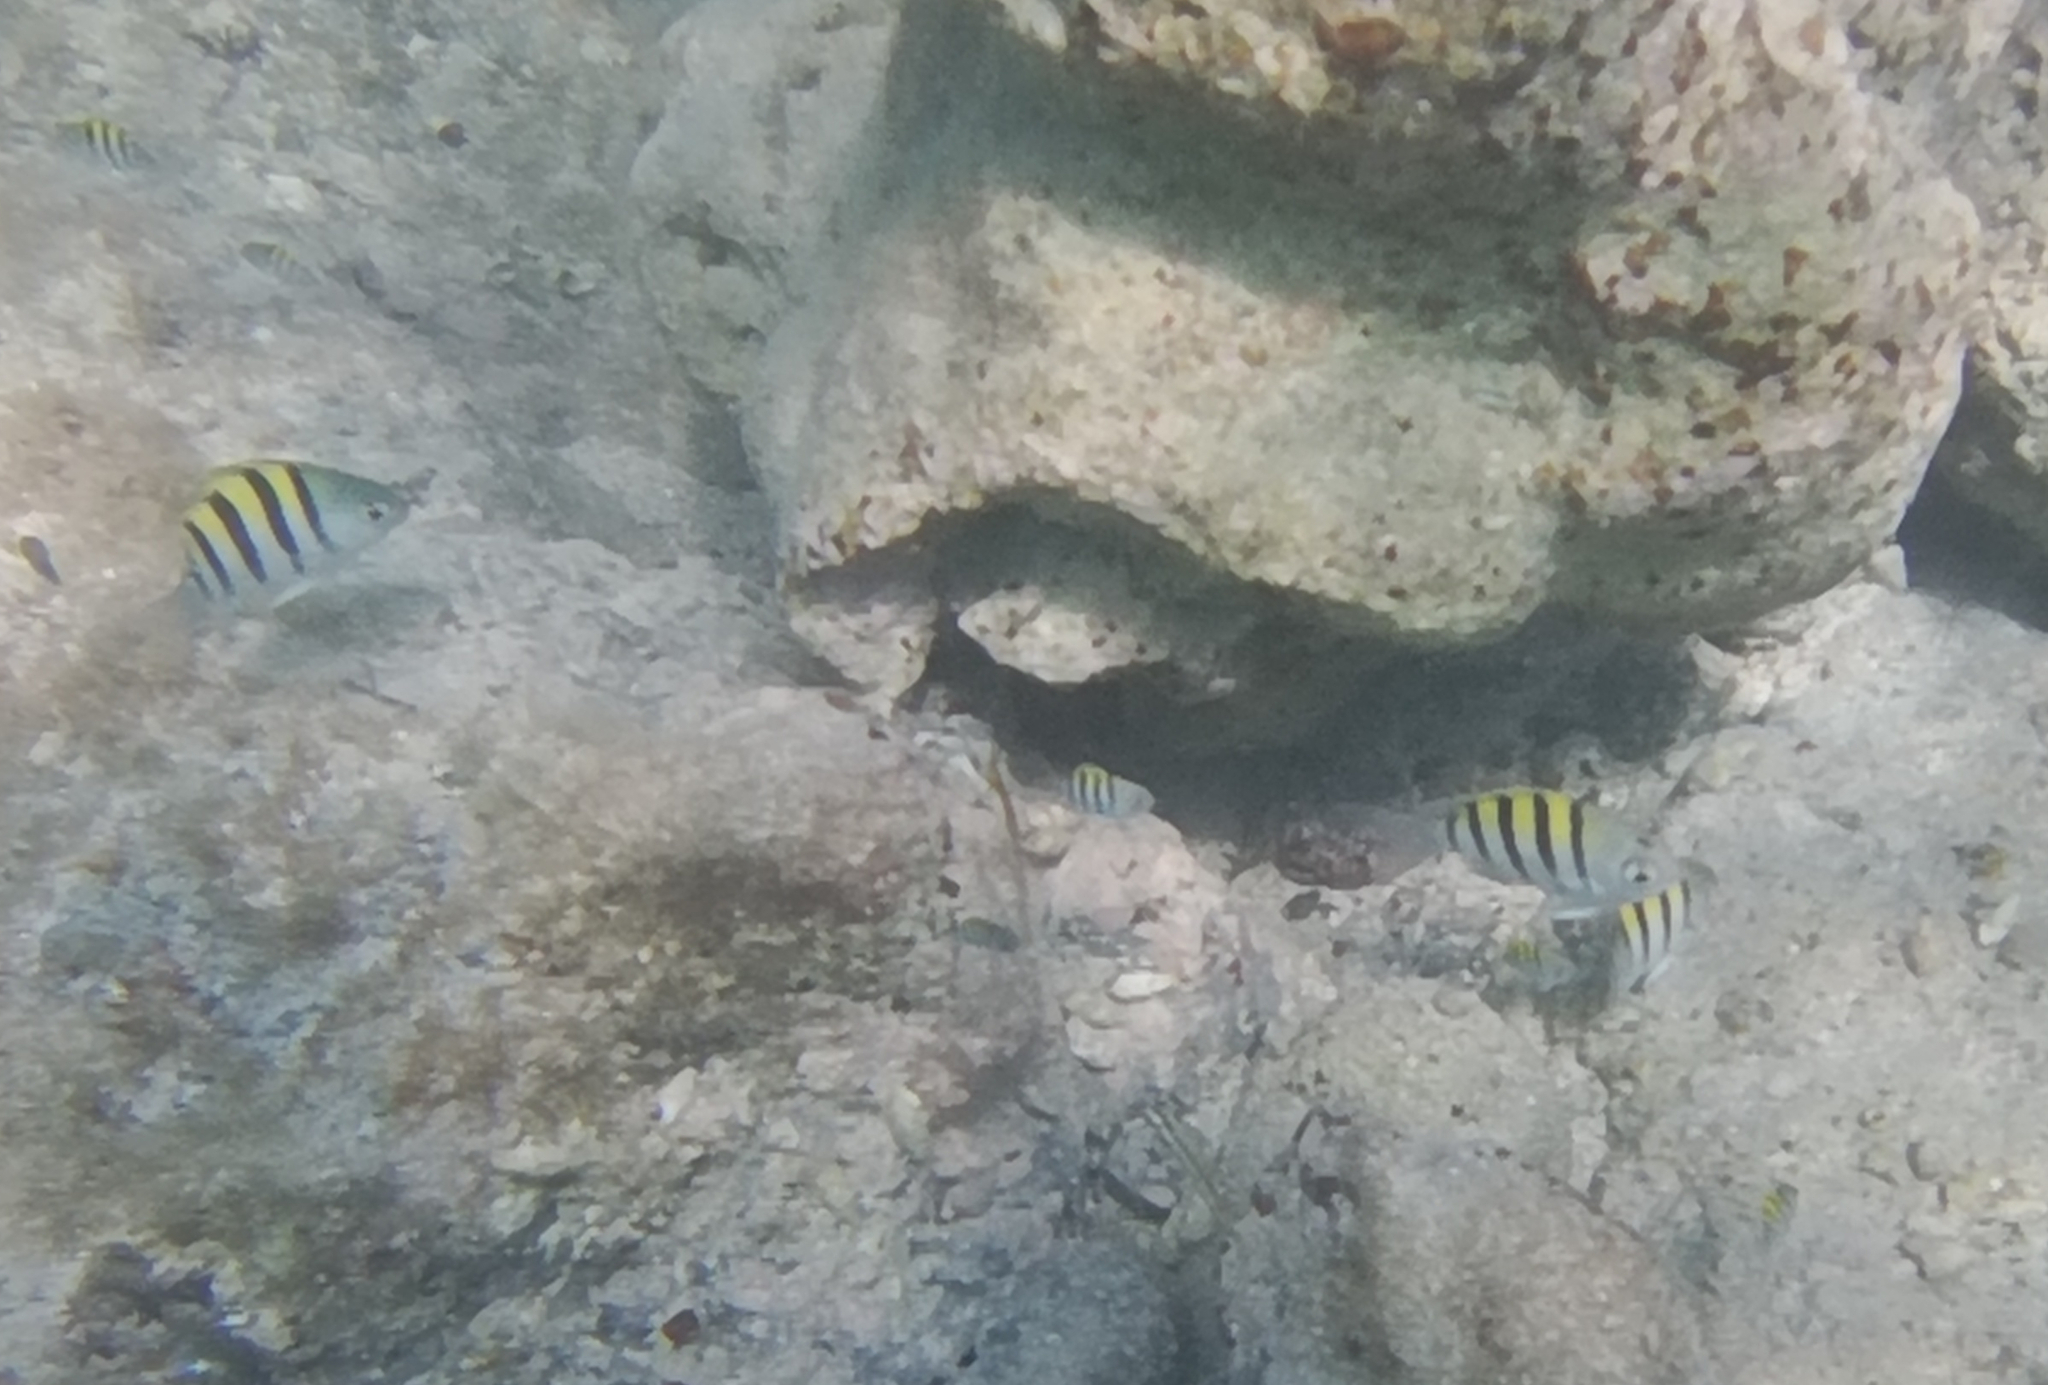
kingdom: Animalia
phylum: Chordata
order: Perciformes
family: Pomacentridae
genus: Abudefduf
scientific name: Abudefduf saxatilis
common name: Sergeant major
